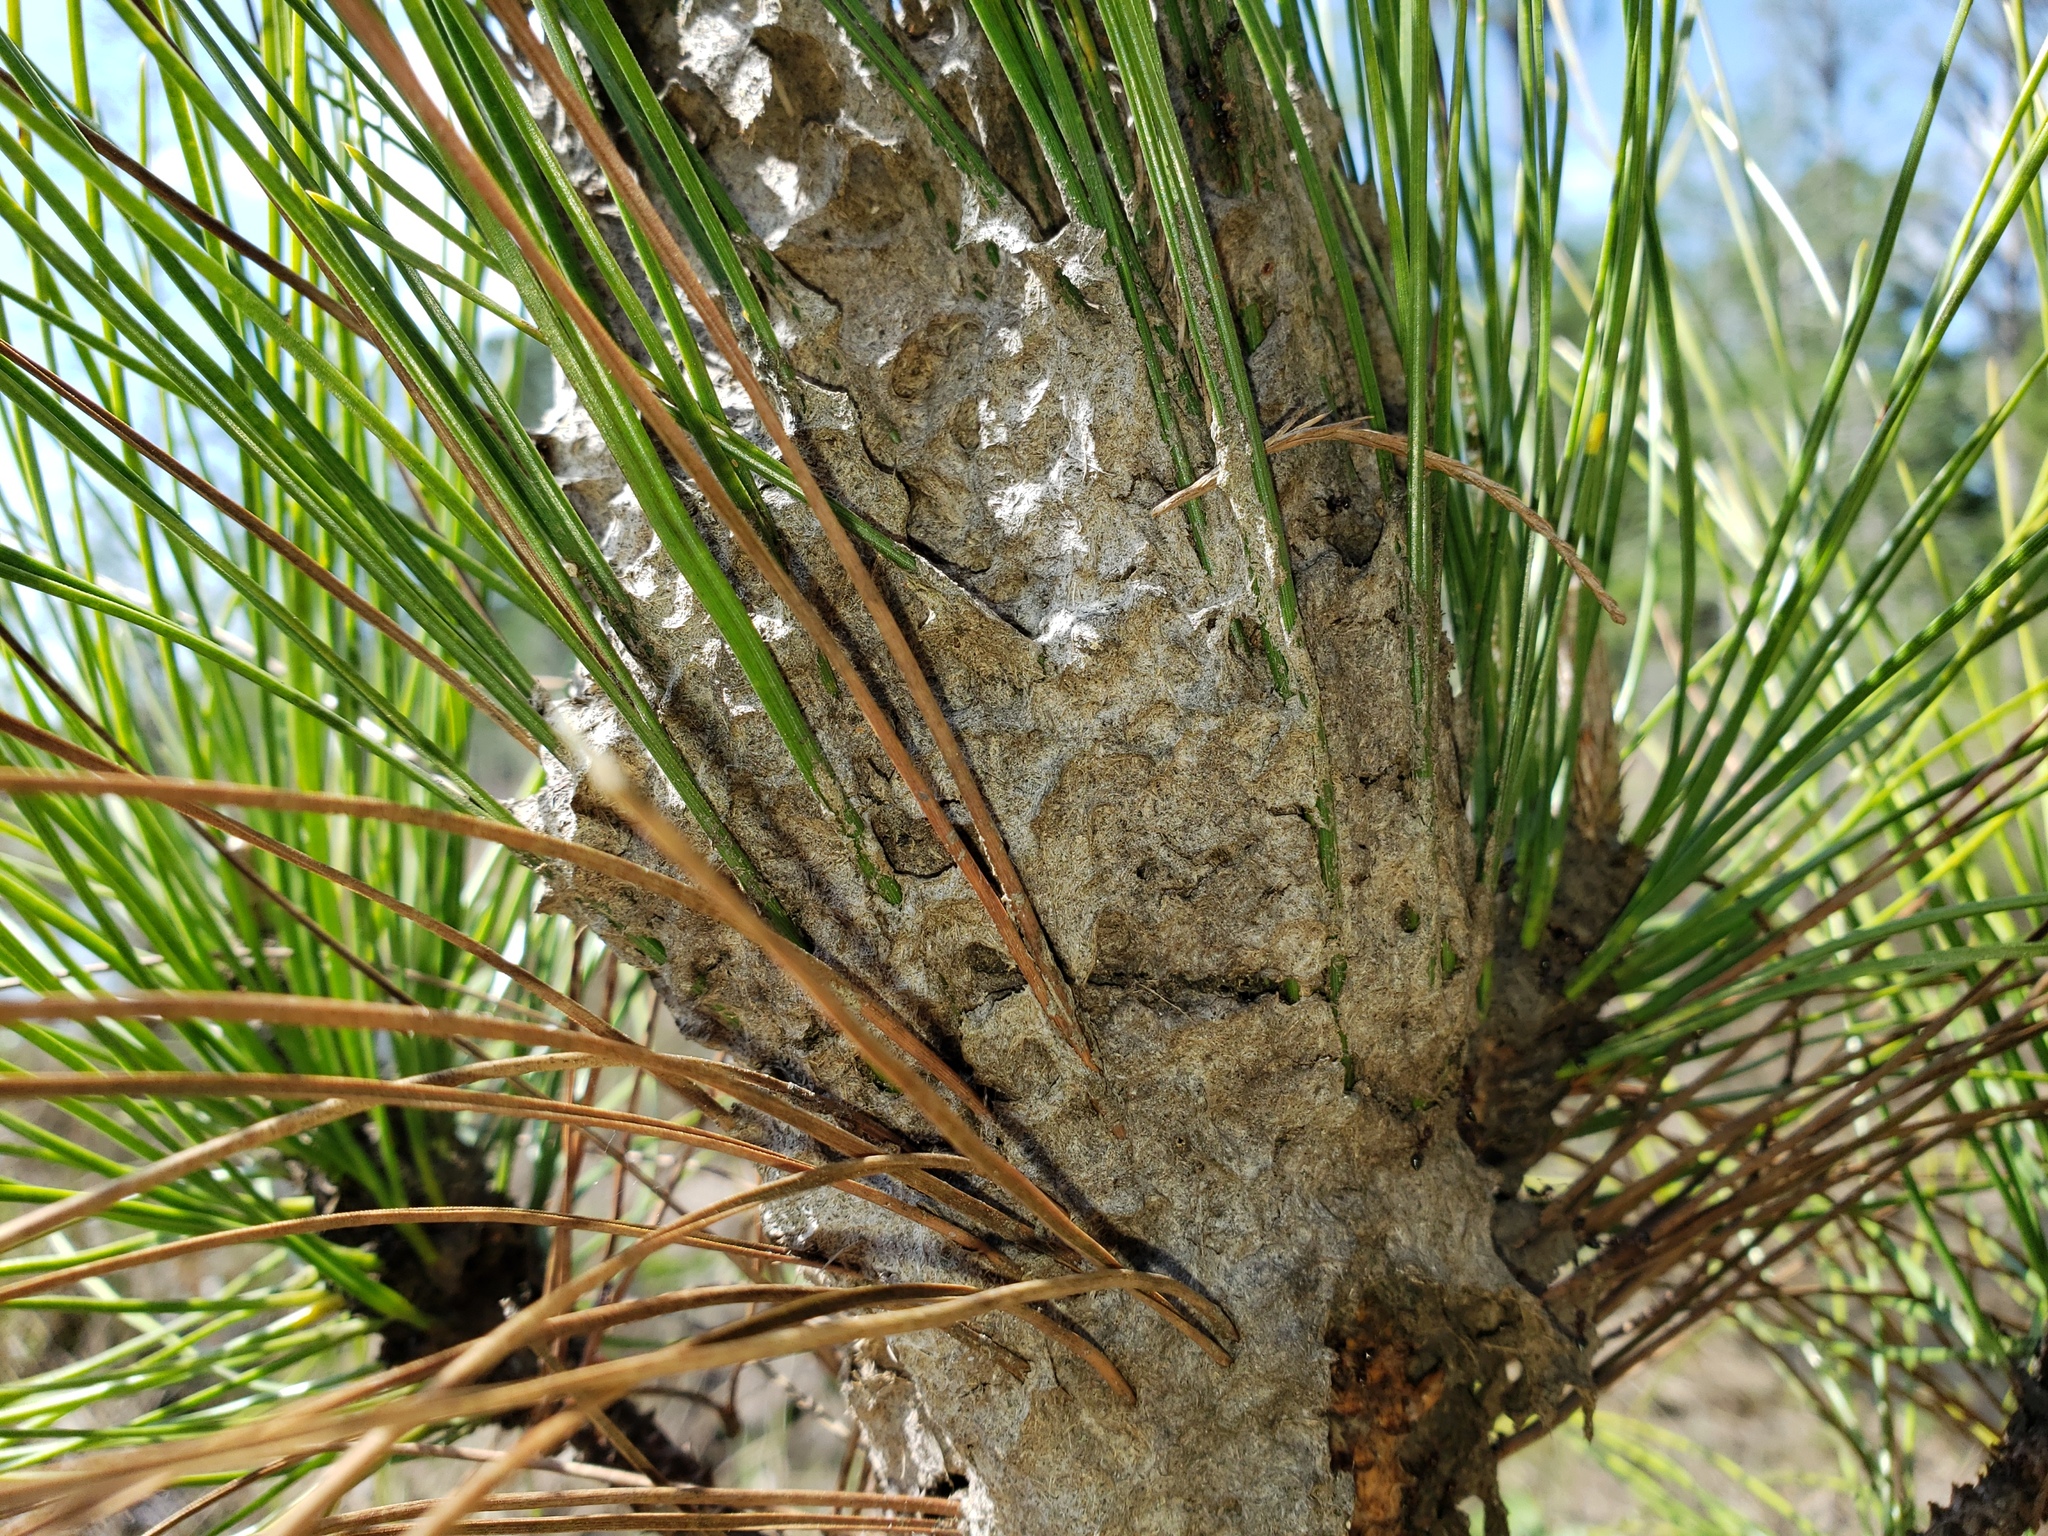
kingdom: Animalia
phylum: Arthropoda
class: Insecta
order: Hymenoptera
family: Formicidae
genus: Crematogaster
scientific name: Crematogaster
